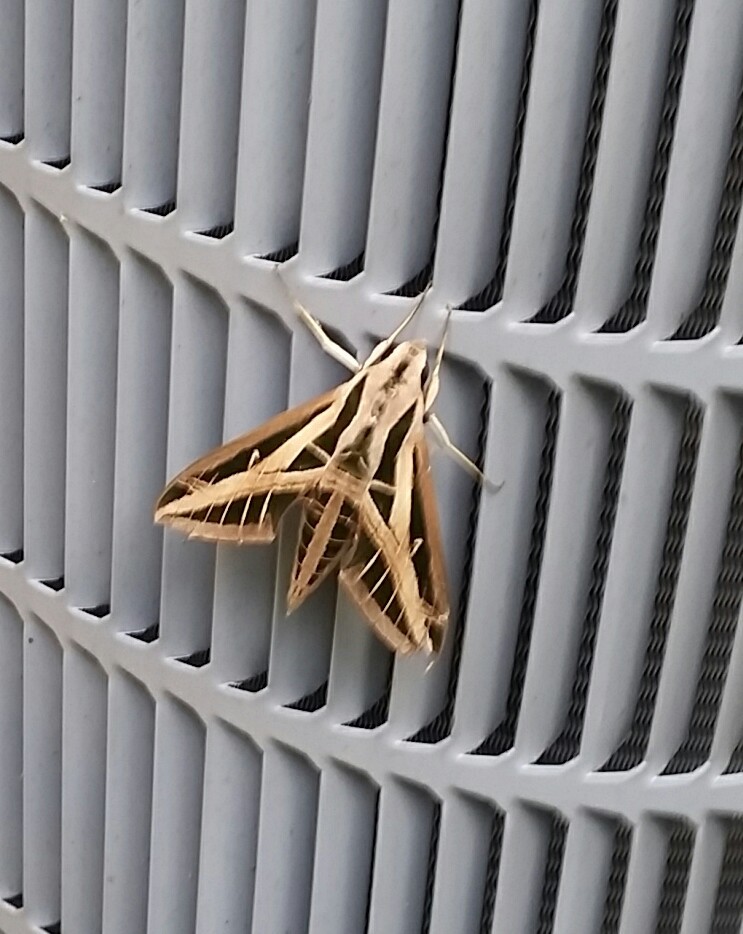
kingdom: Animalia
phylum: Arthropoda
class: Insecta
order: Lepidoptera
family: Sphingidae
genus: Eumorpha
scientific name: Eumorpha fasciatus
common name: Banded sphinx
